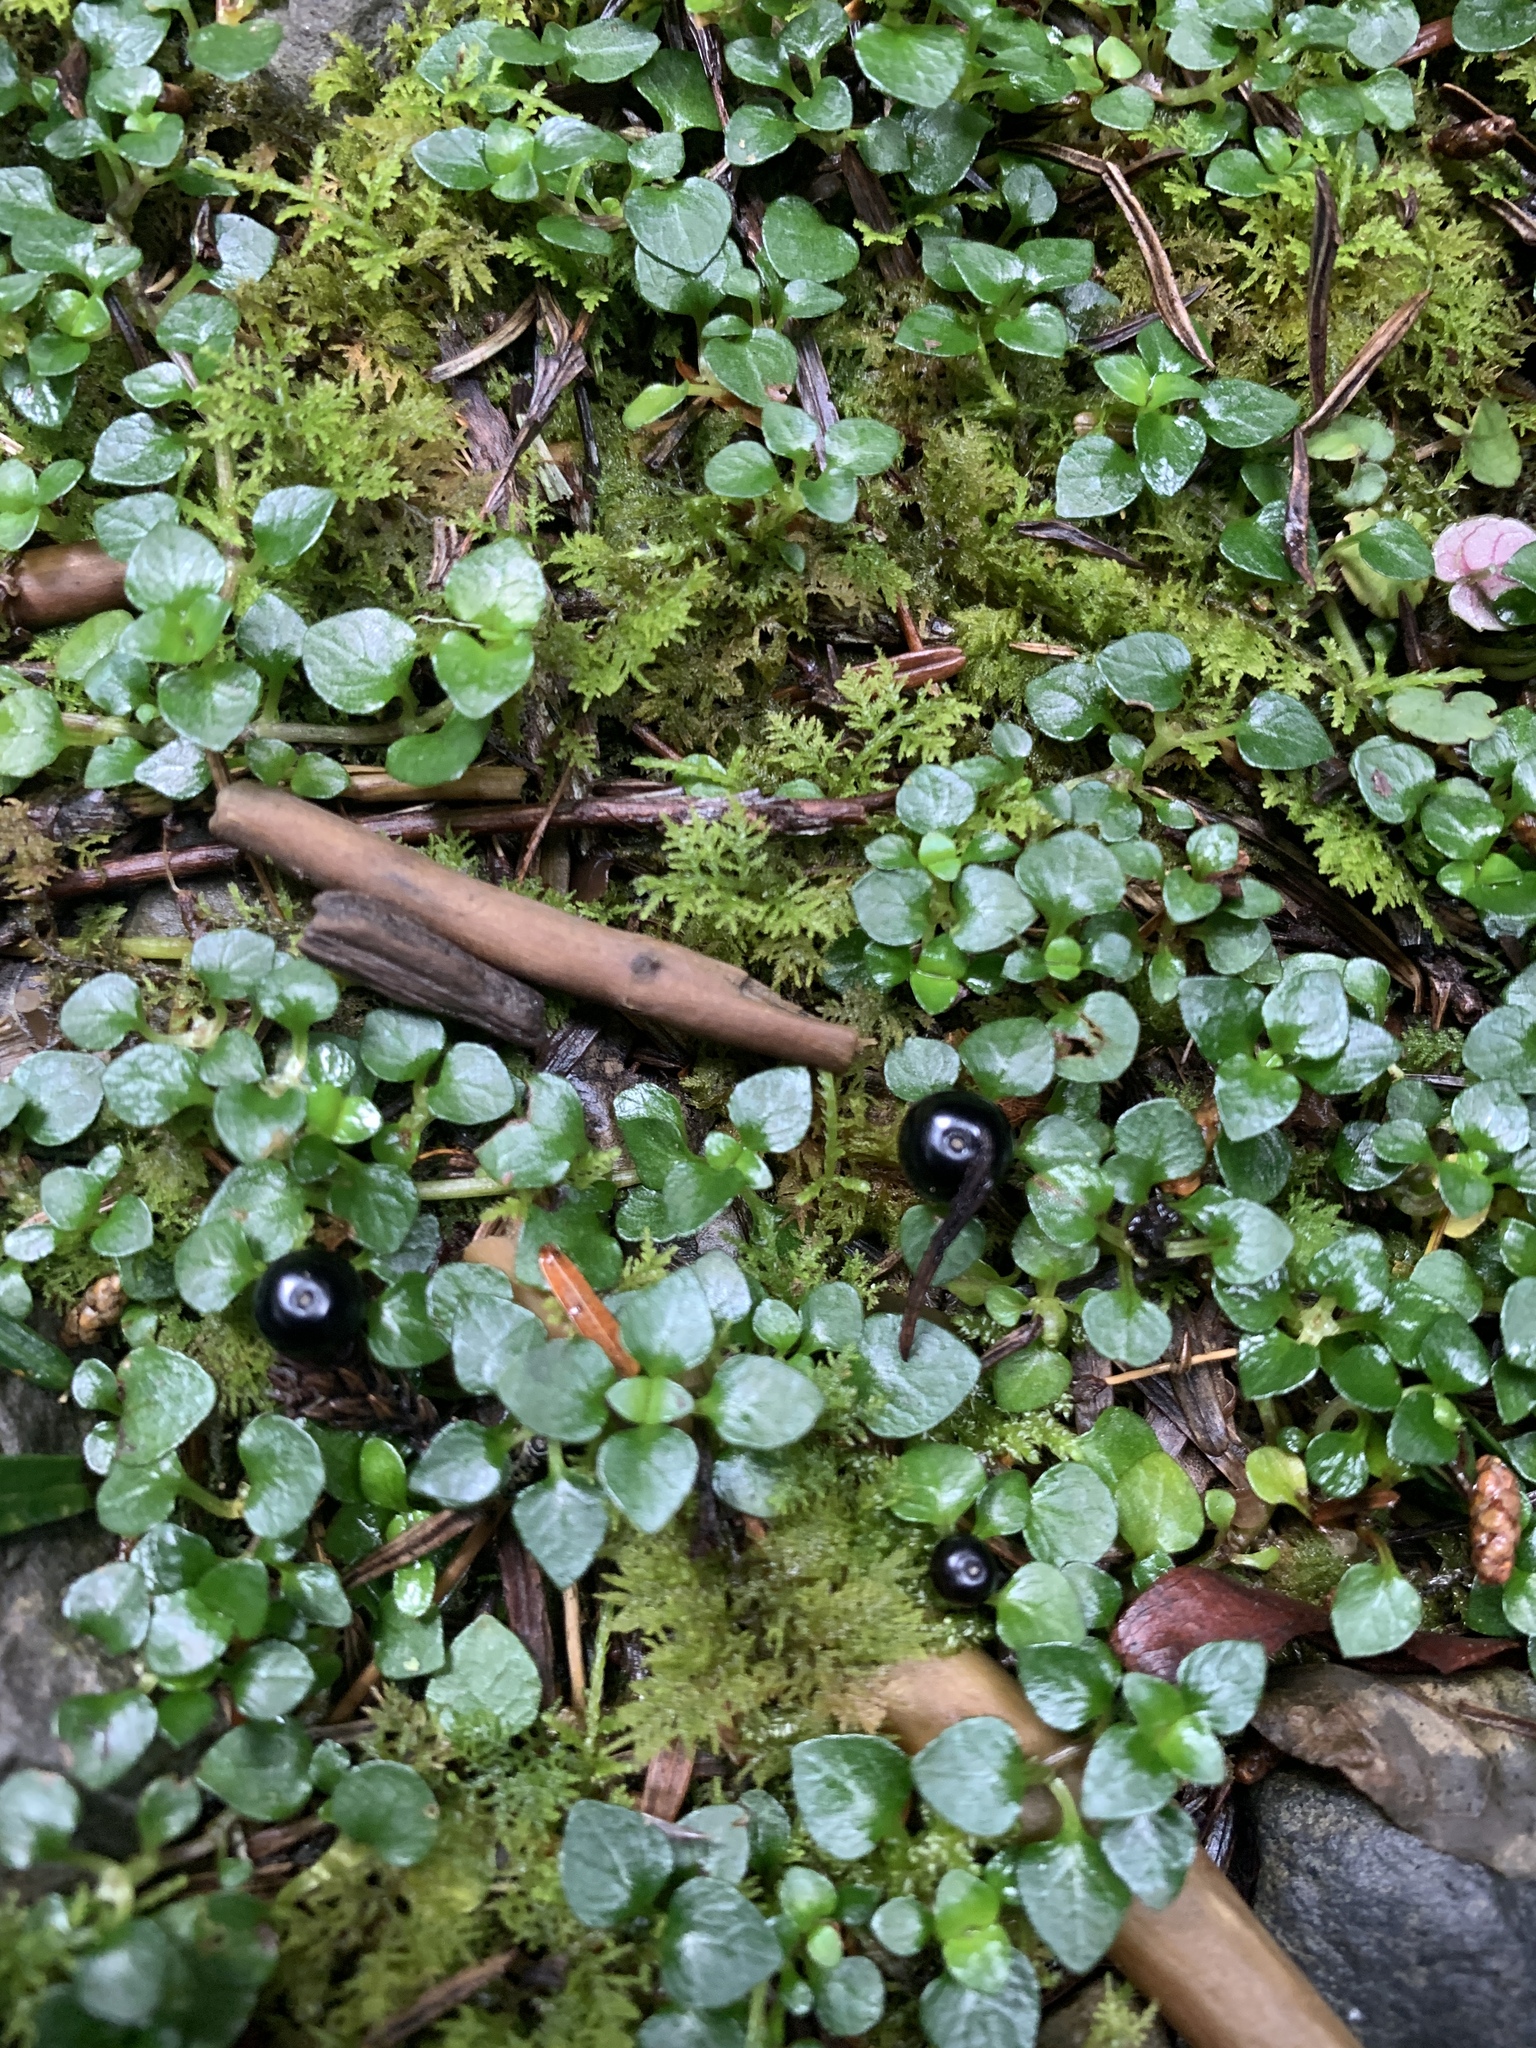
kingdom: Plantae
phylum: Tracheophyta
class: Magnoliopsida
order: Gentianales
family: Rubiaceae
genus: Nertera
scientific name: Nertera nigricarpa
